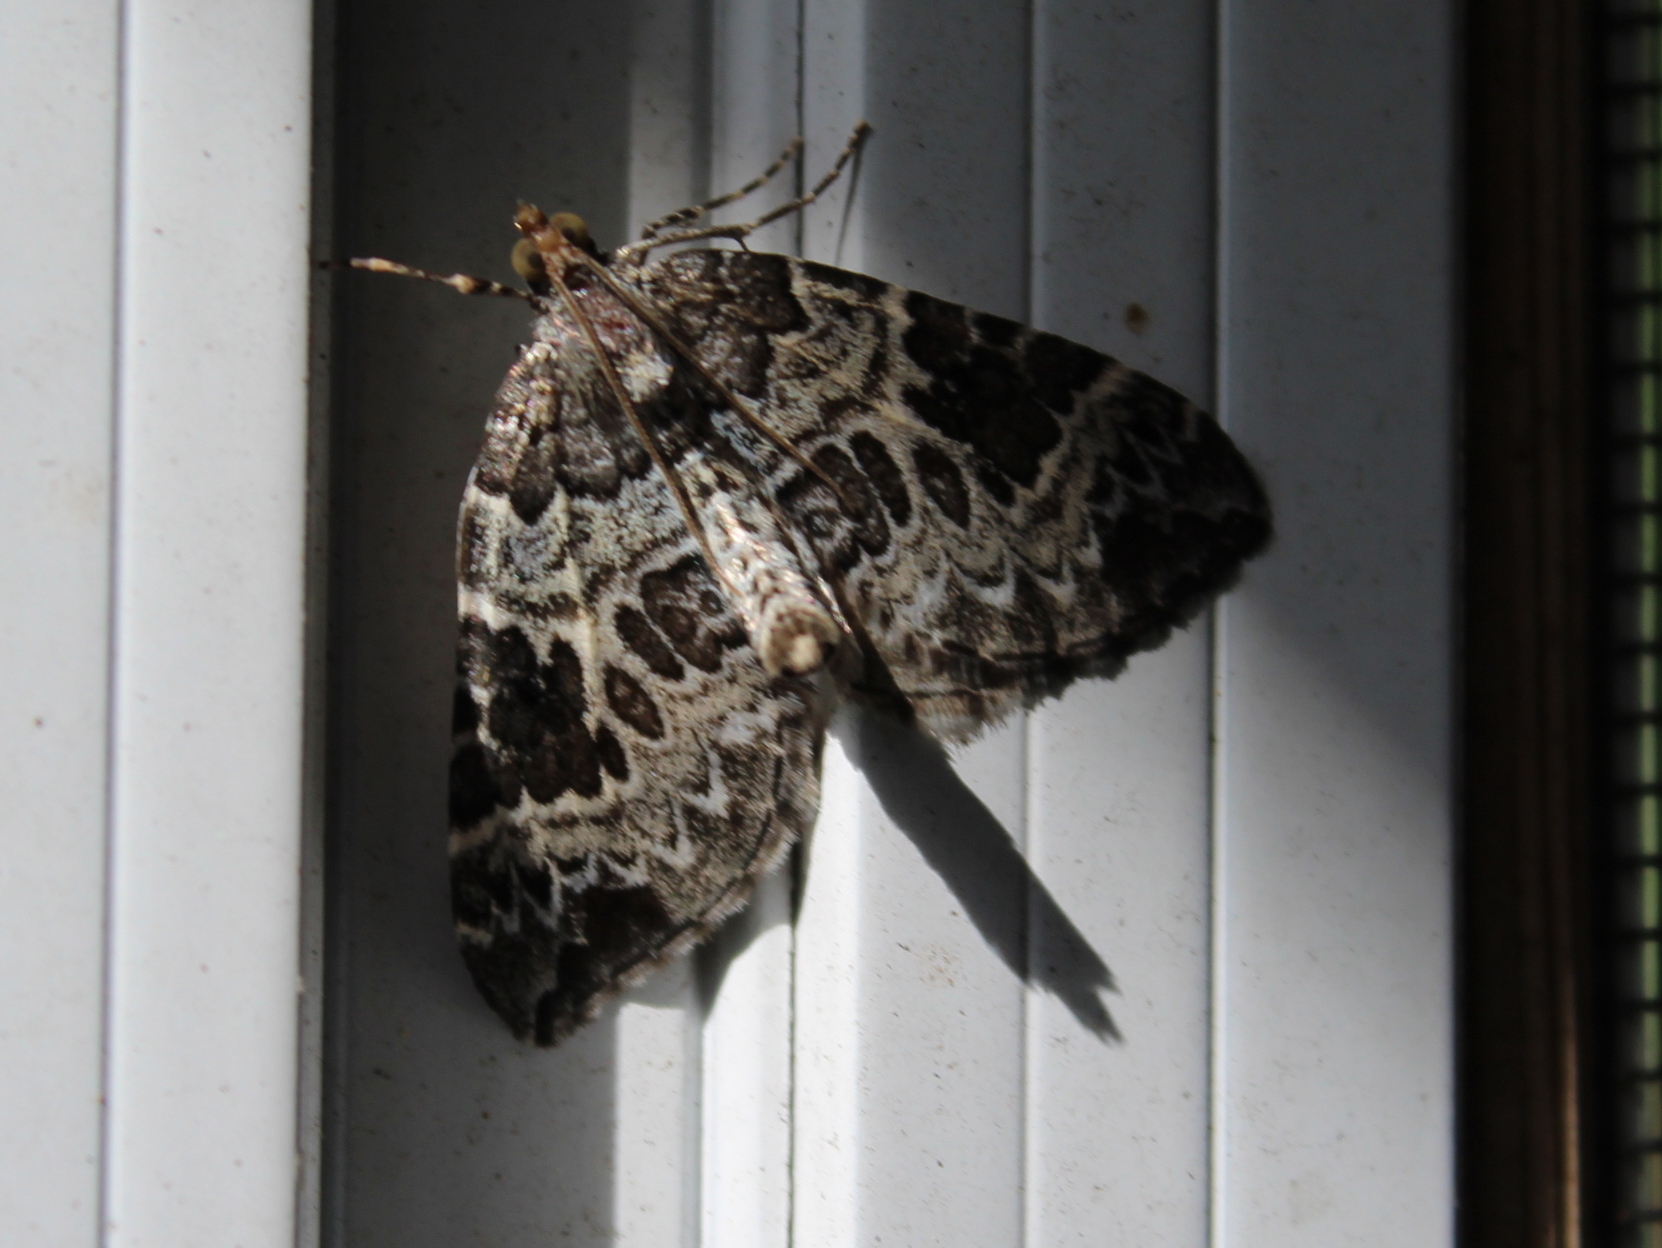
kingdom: Animalia
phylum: Arthropoda
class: Insecta
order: Lepidoptera
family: Geometridae
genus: Eulithis
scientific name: Eulithis explanata
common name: White eulithis
